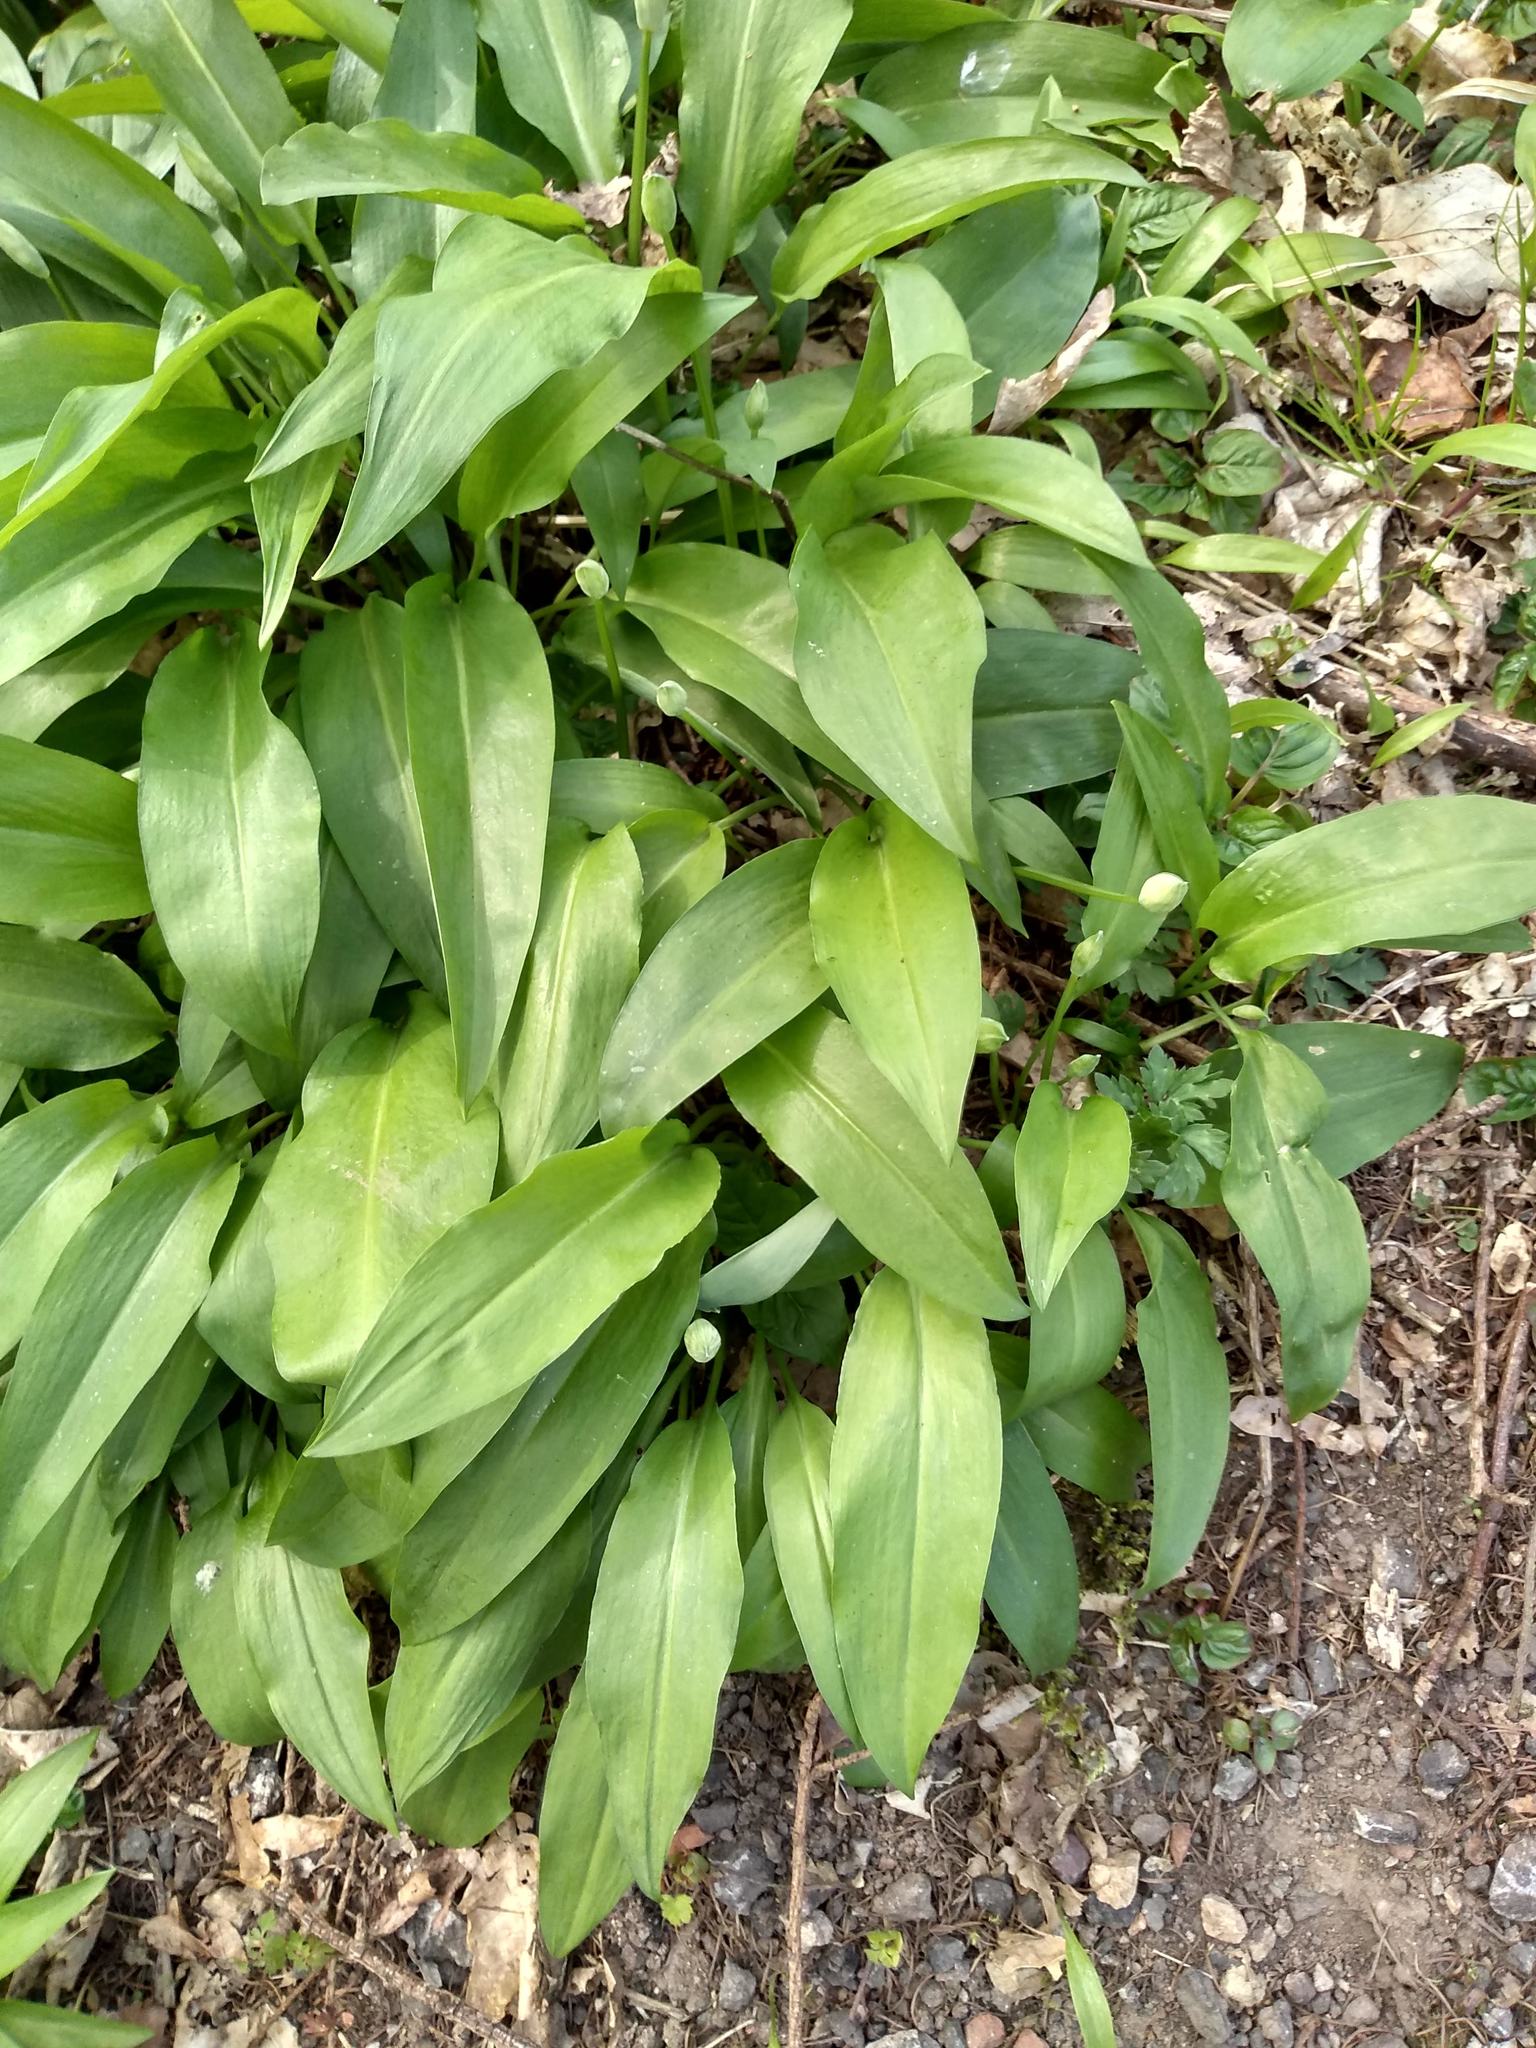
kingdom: Plantae
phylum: Tracheophyta
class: Liliopsida
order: Asparagales
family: Amaryllidaceae
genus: Allium
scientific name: Allium ursinum
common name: Ramsons
